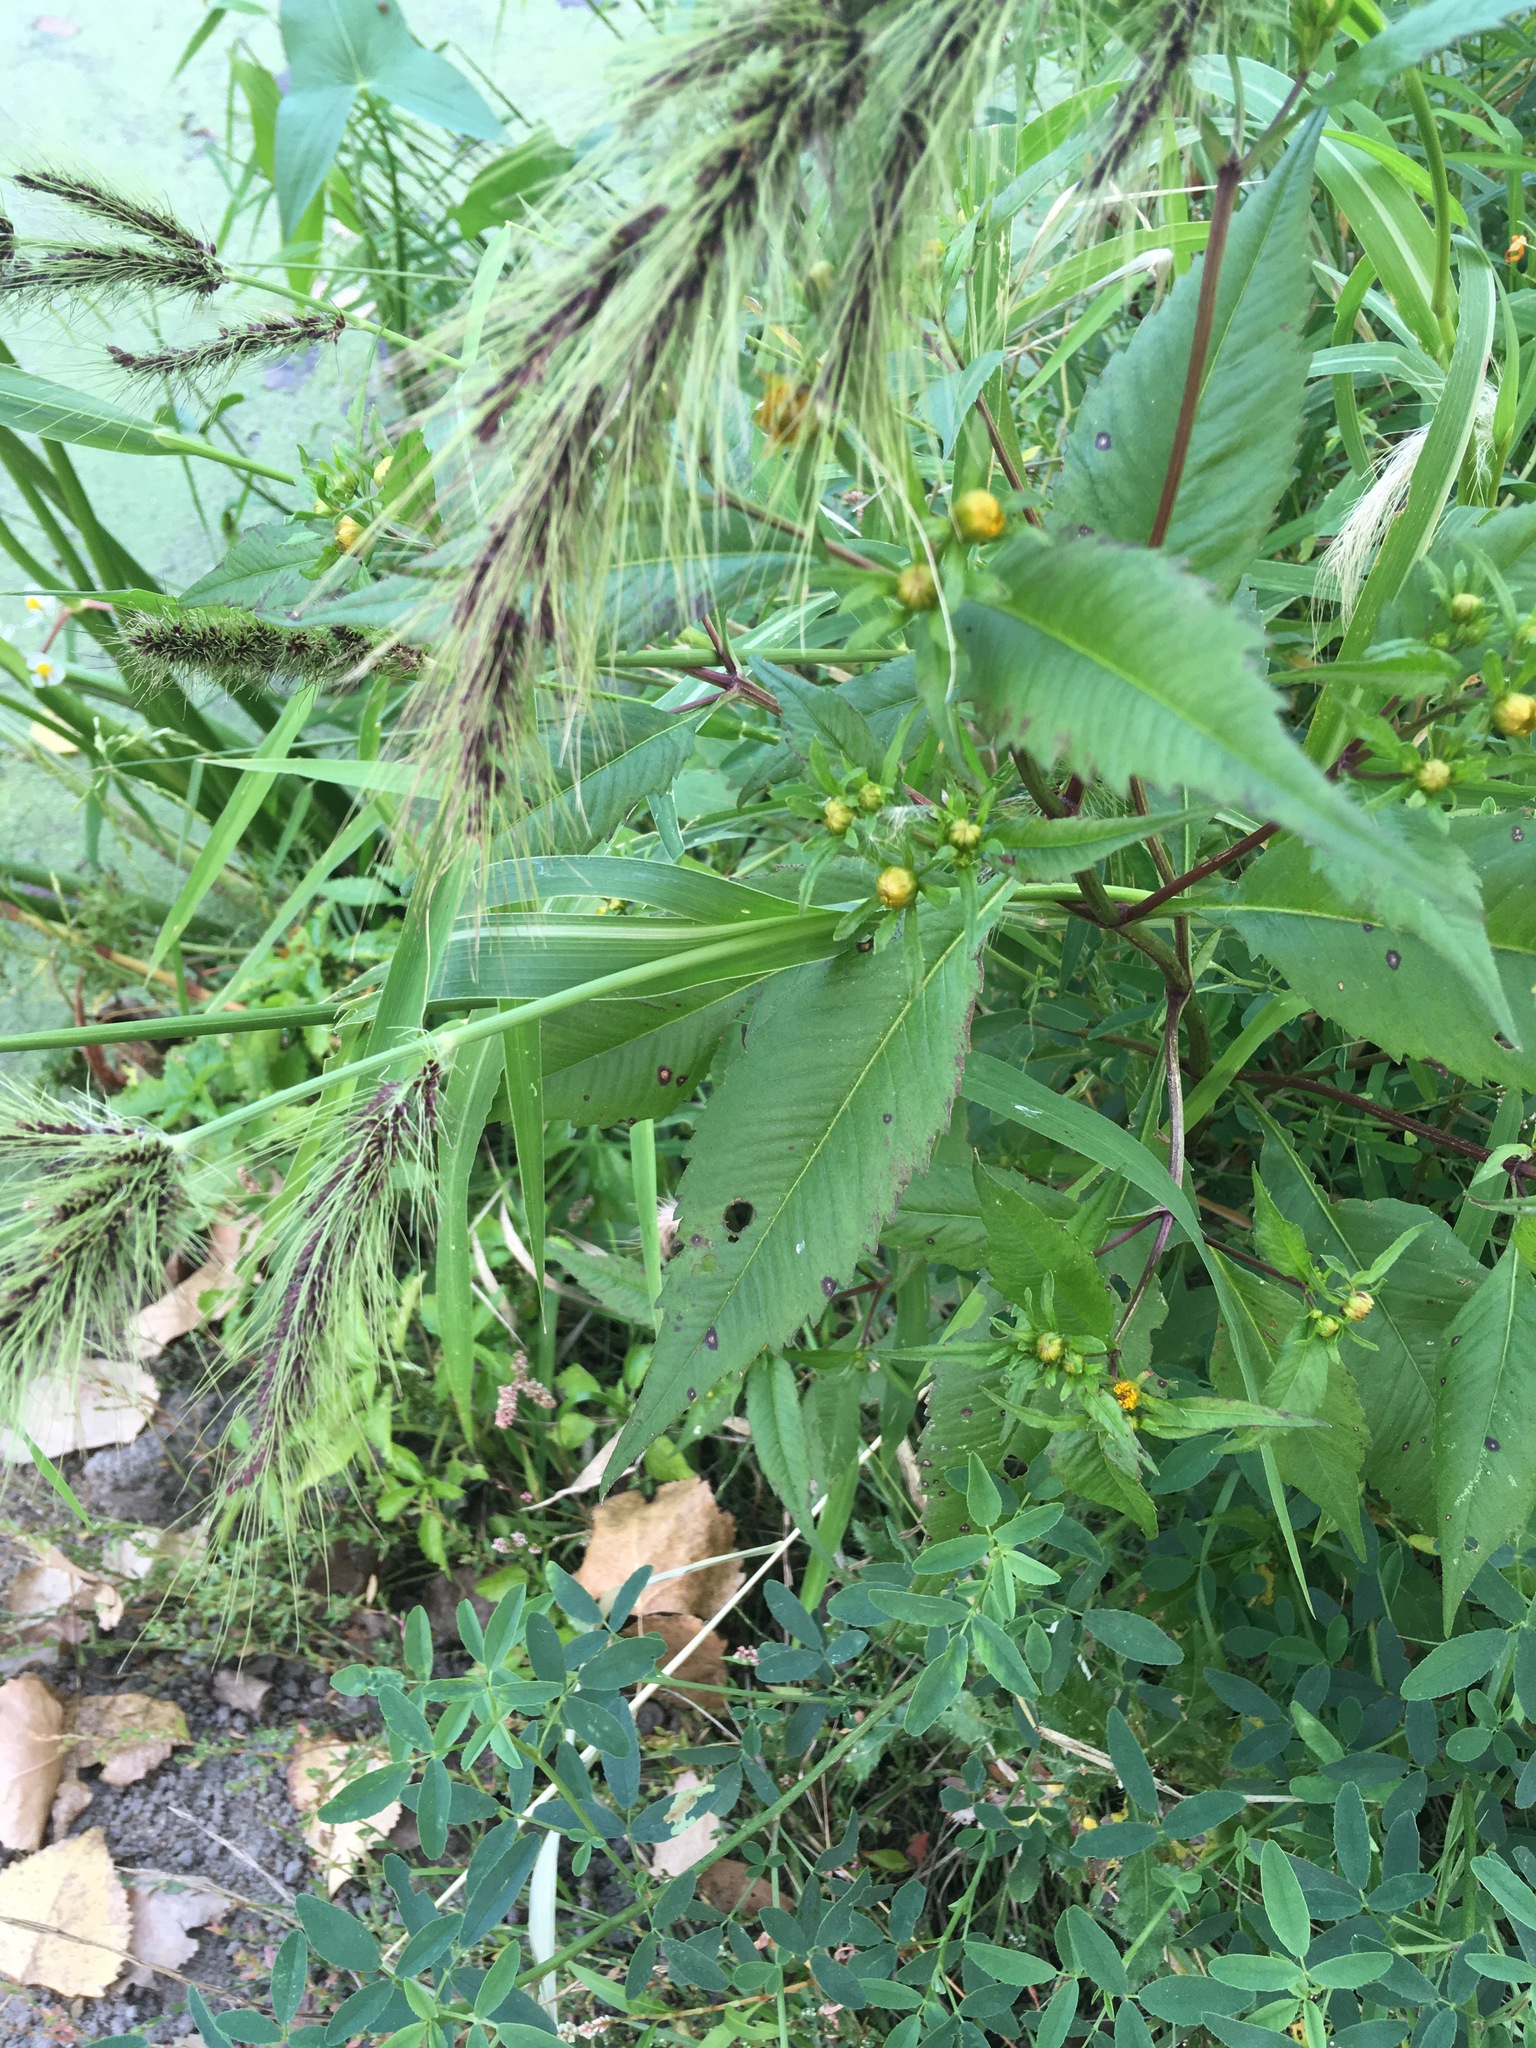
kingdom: Plantae
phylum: Tracheophyta
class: Liliopsida
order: Poales
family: Poaceae
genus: Echinochloa
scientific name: Echinochloa walteri
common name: Coast barnyard grass
